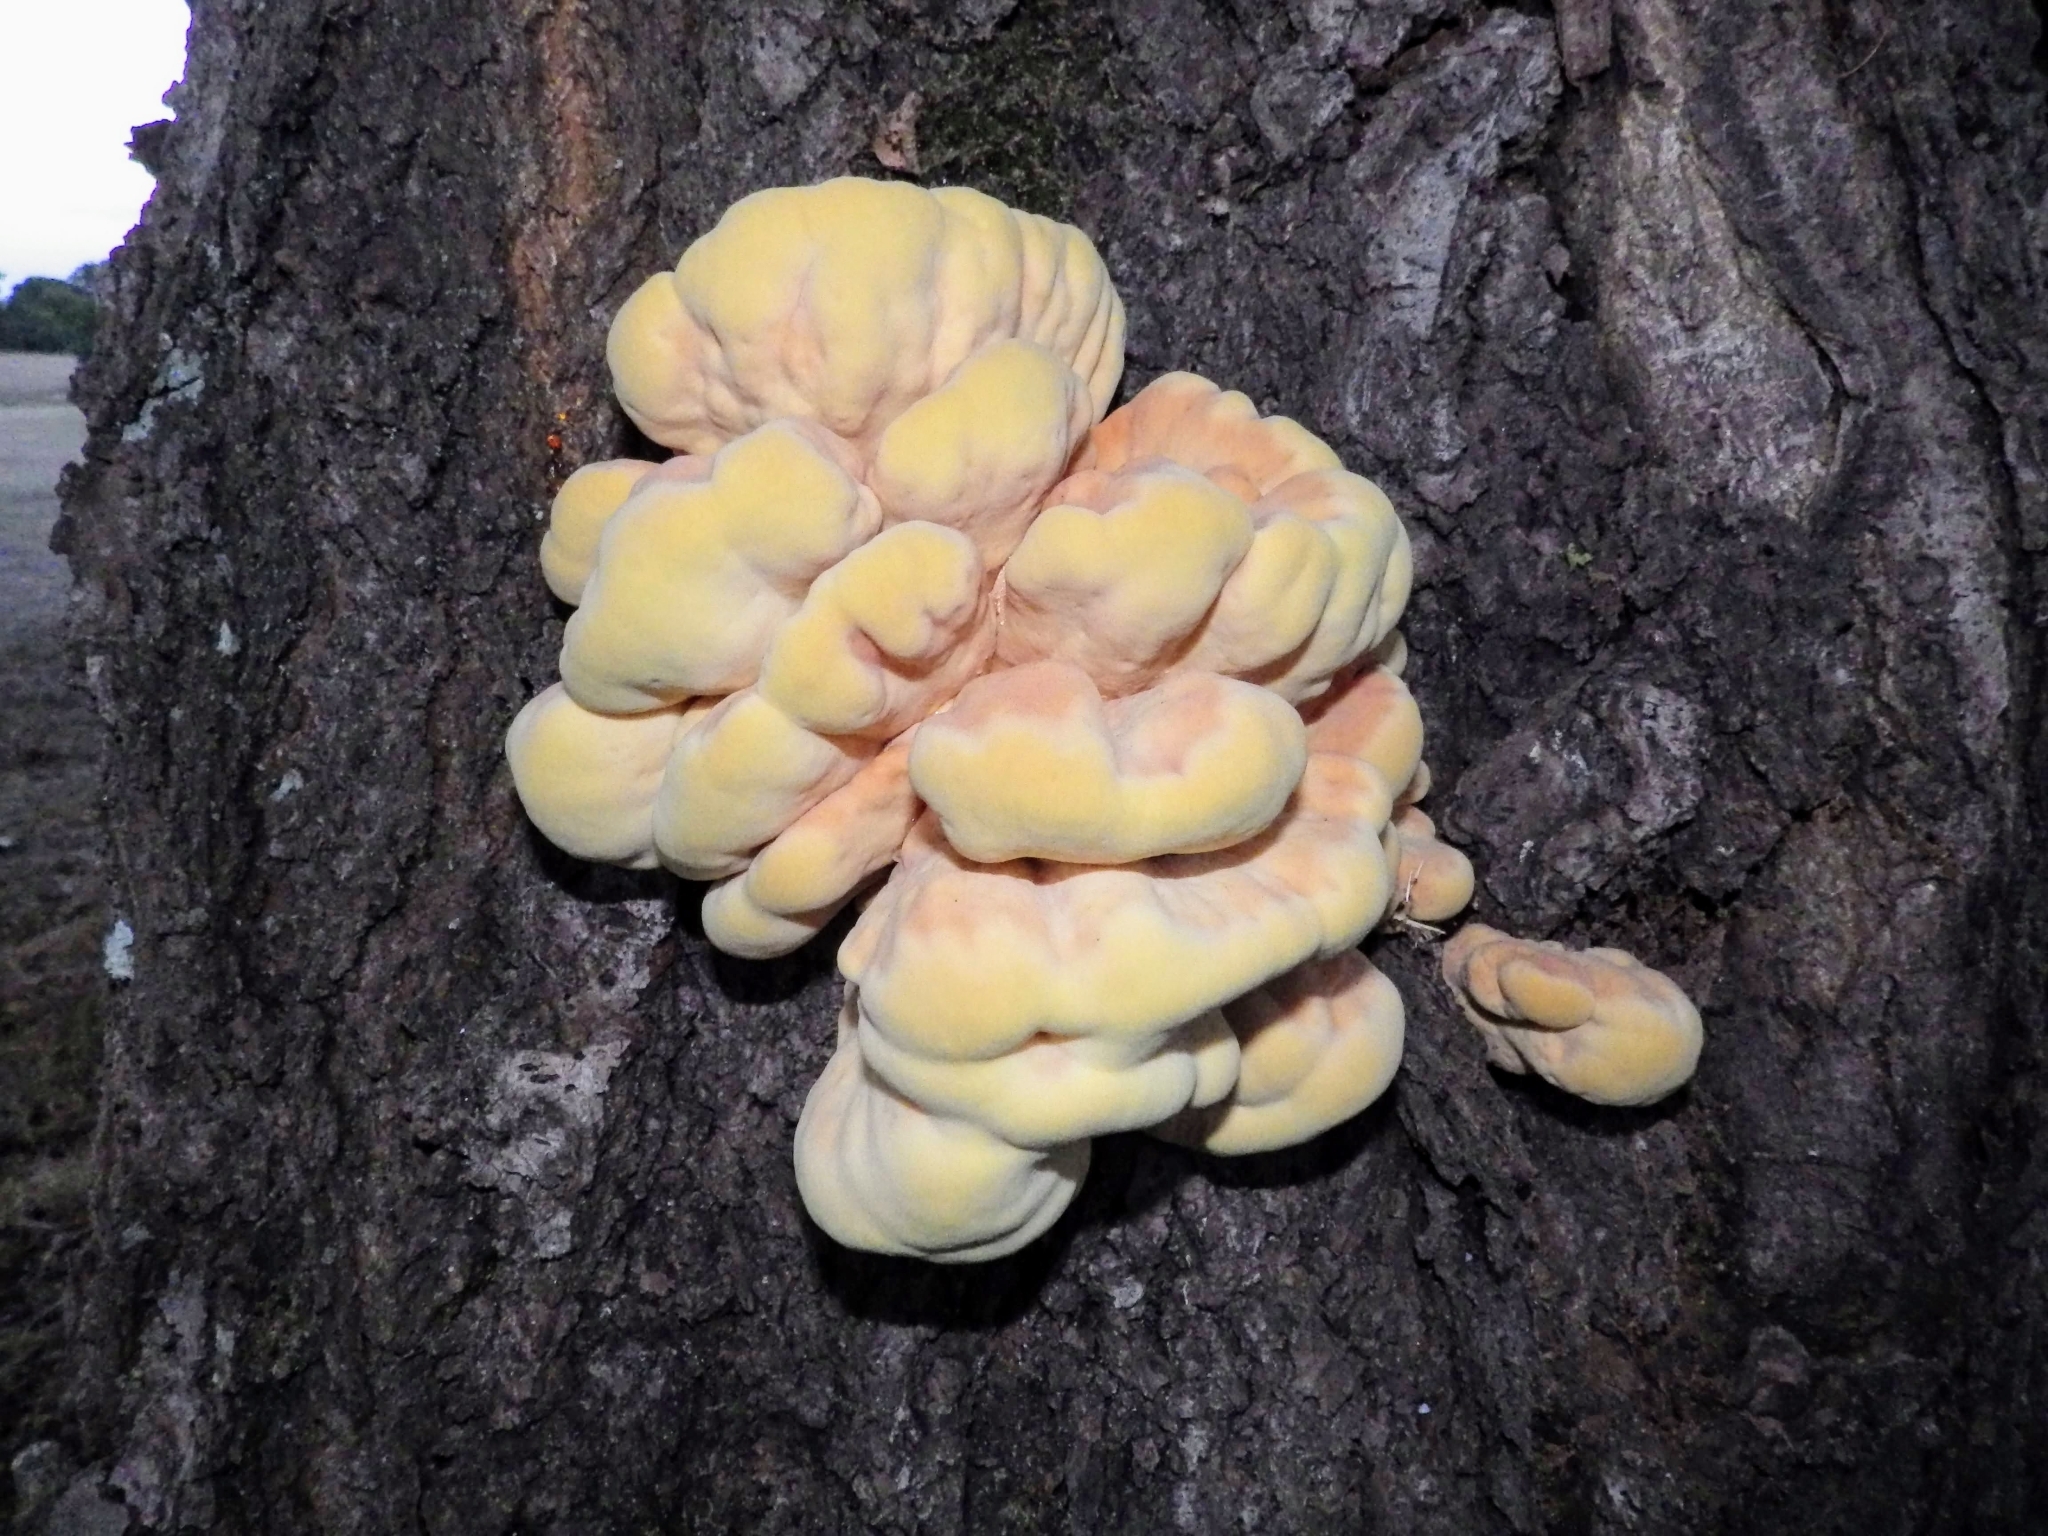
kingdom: Fungi
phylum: Basidiomycota
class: Agaricomycetes
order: Polyporales
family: Laetiporaceae
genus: Laetiporus
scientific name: Laetiporus sulphureus
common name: Chicken of the woods
